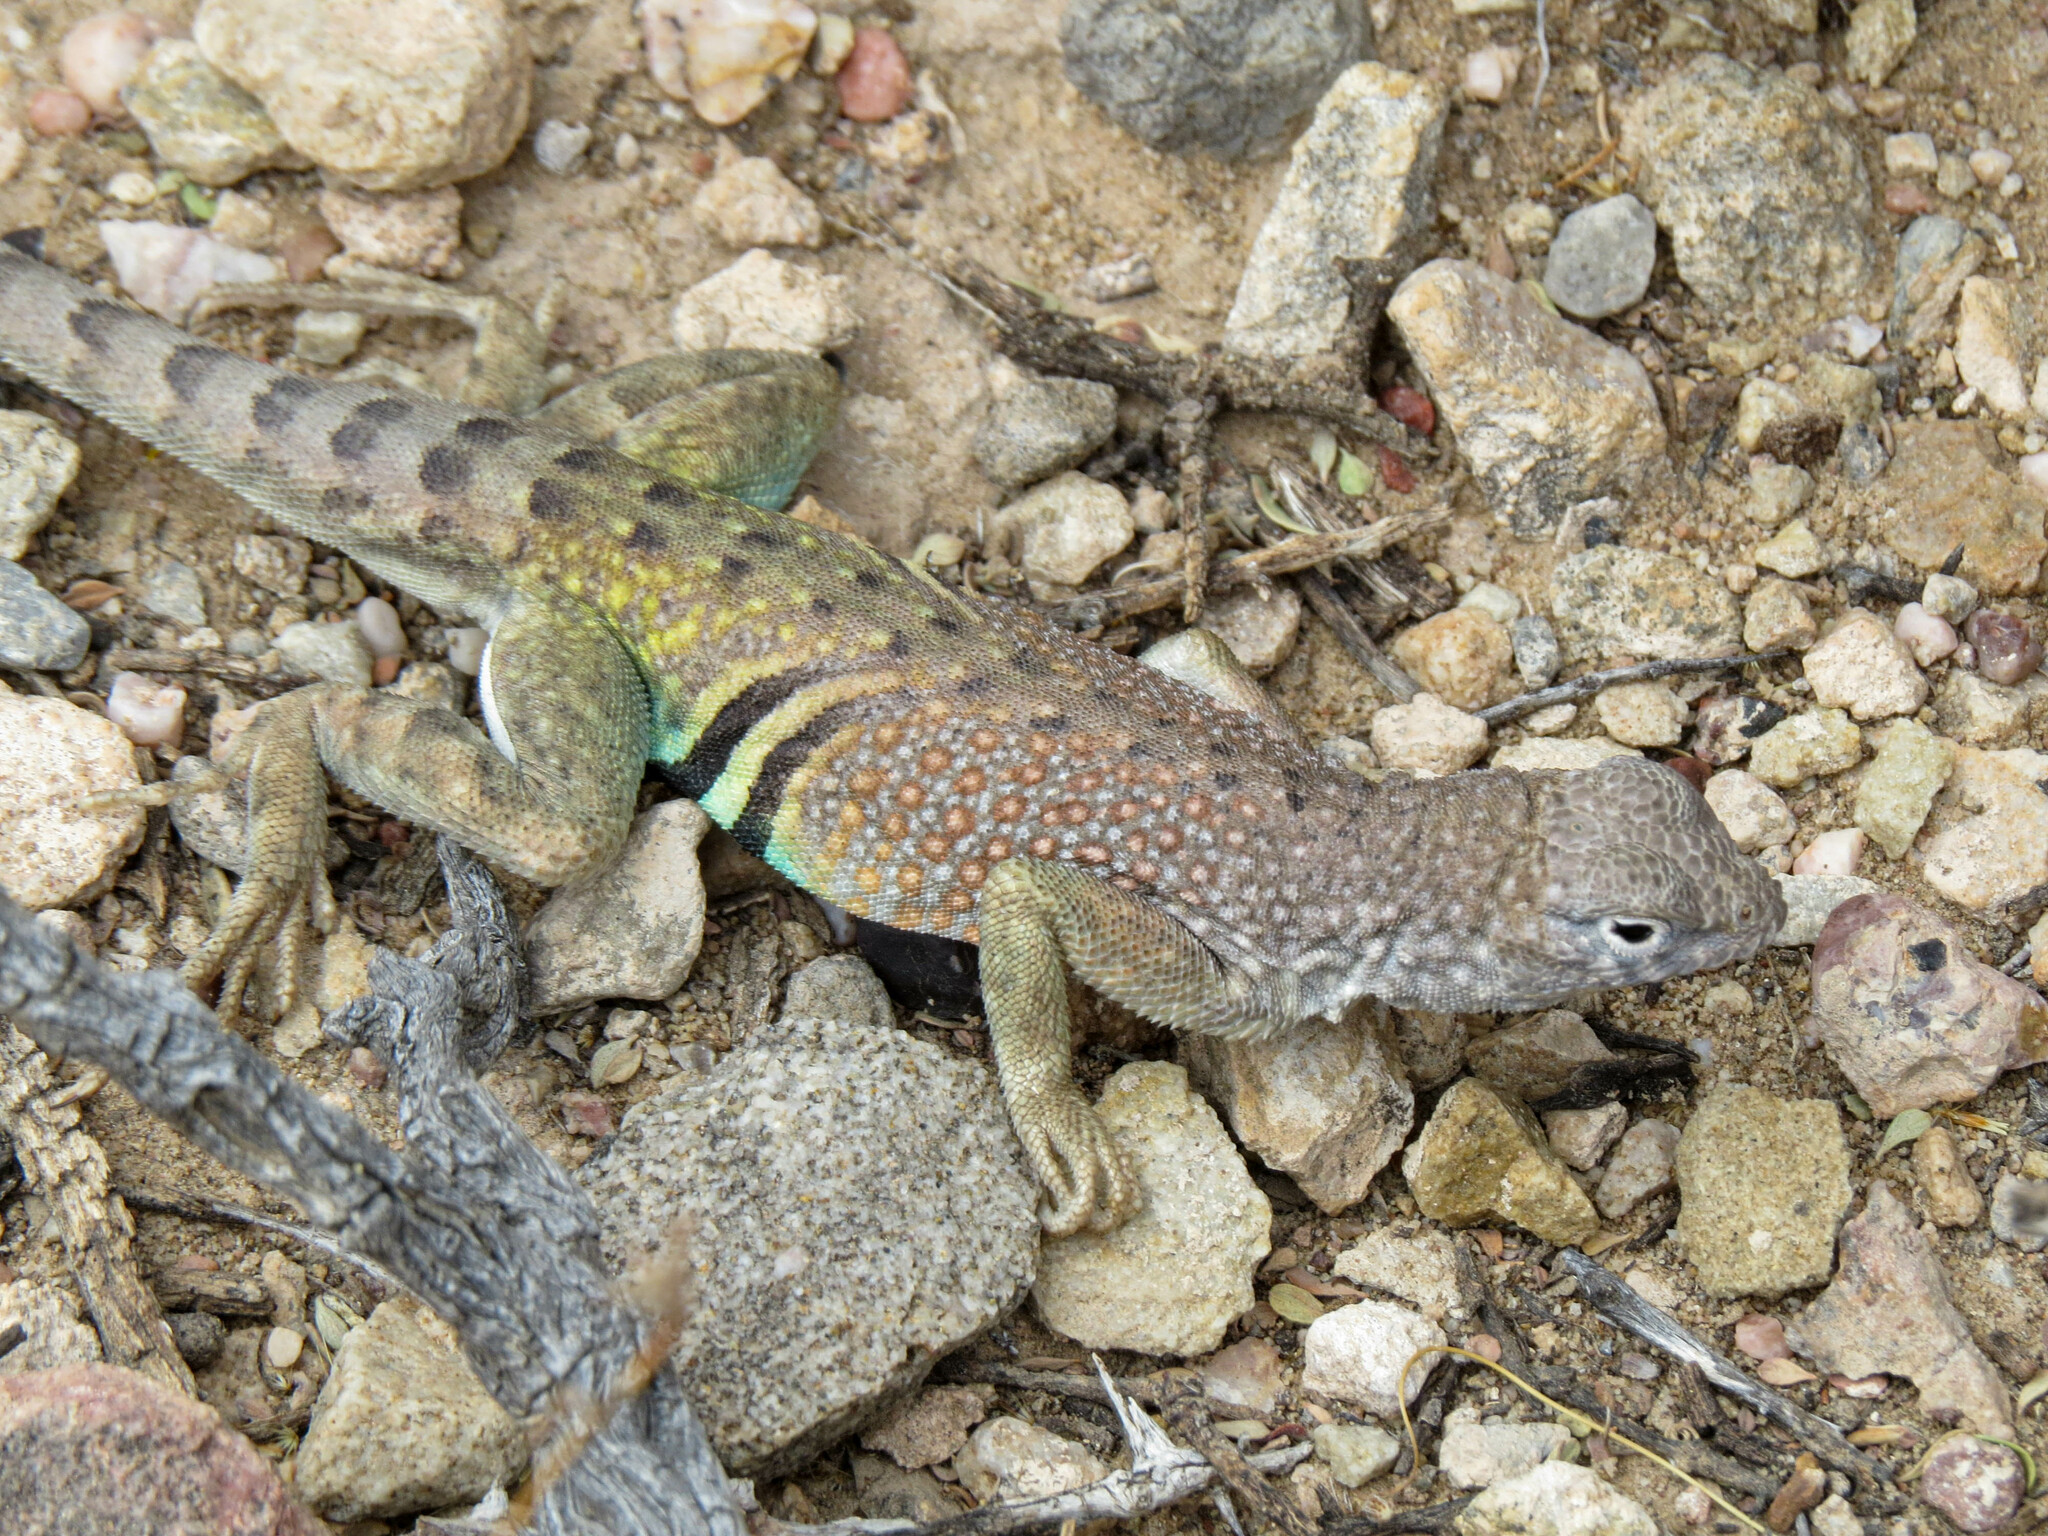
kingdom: Animalia
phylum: Chordata
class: Squamata
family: Phrynosomatidae
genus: Cophosaurus
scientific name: Cophosaurus texanus
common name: Greater earless lizard
